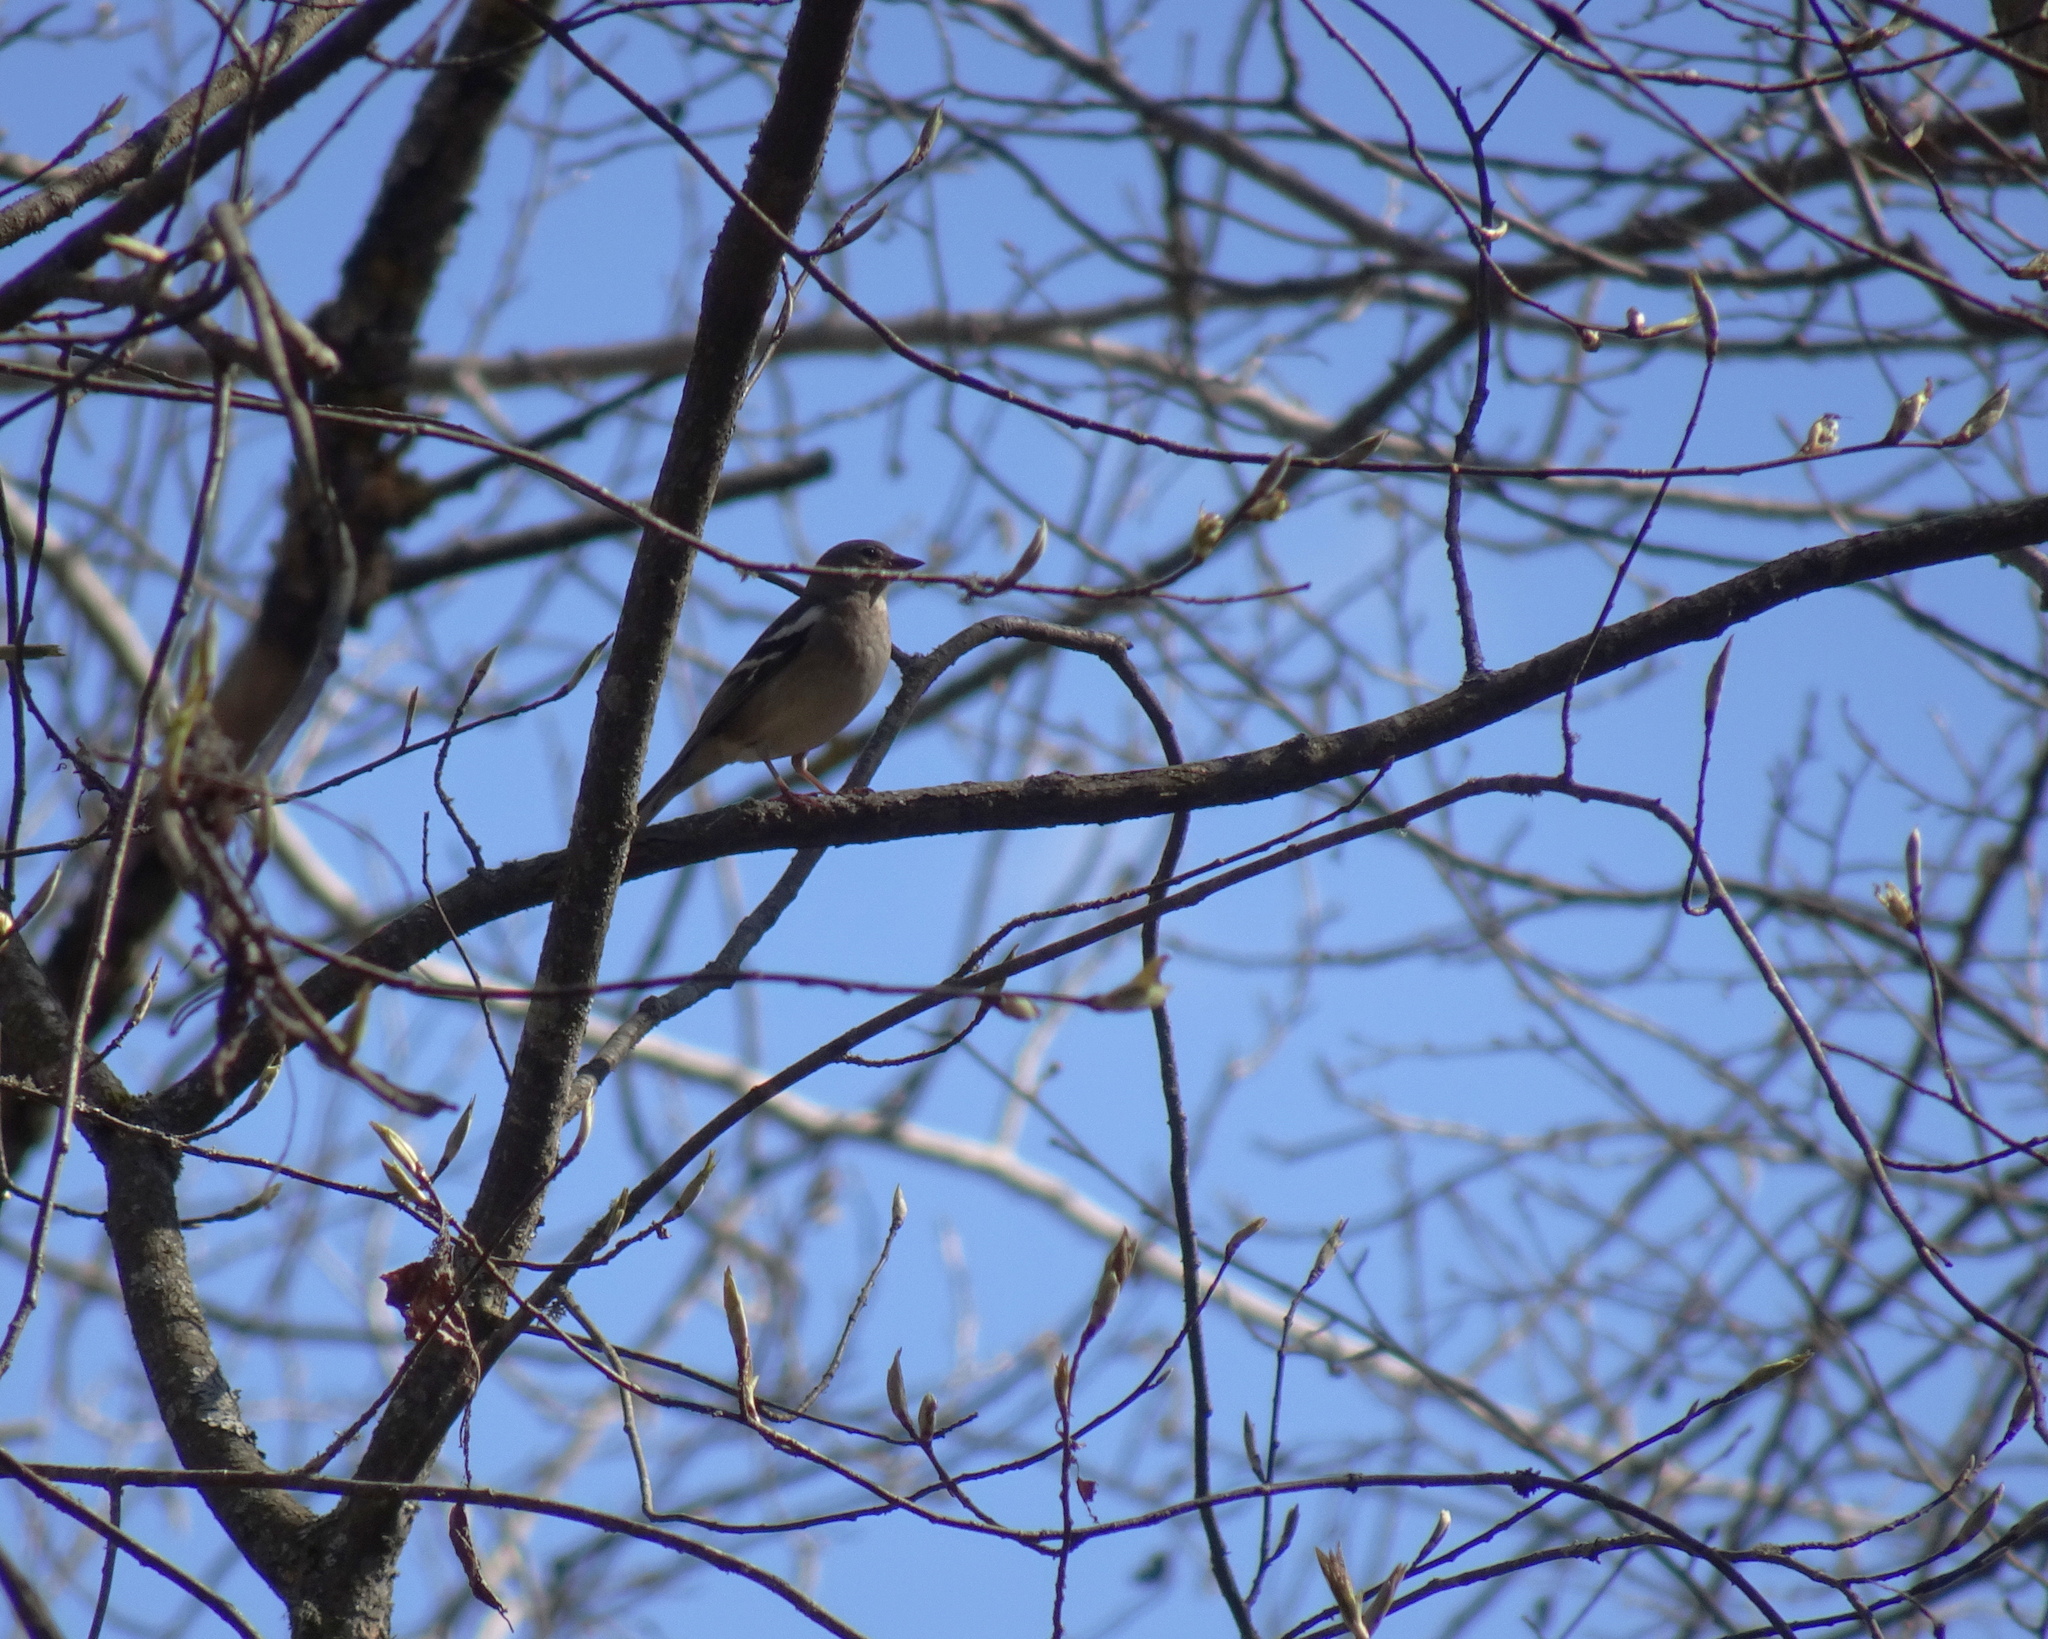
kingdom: Animalia
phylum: Chordata
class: Aves
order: Passeriformes
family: Fringillidae
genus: Fringilla
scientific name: Fringilla coelebs
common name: Common chaffinch
